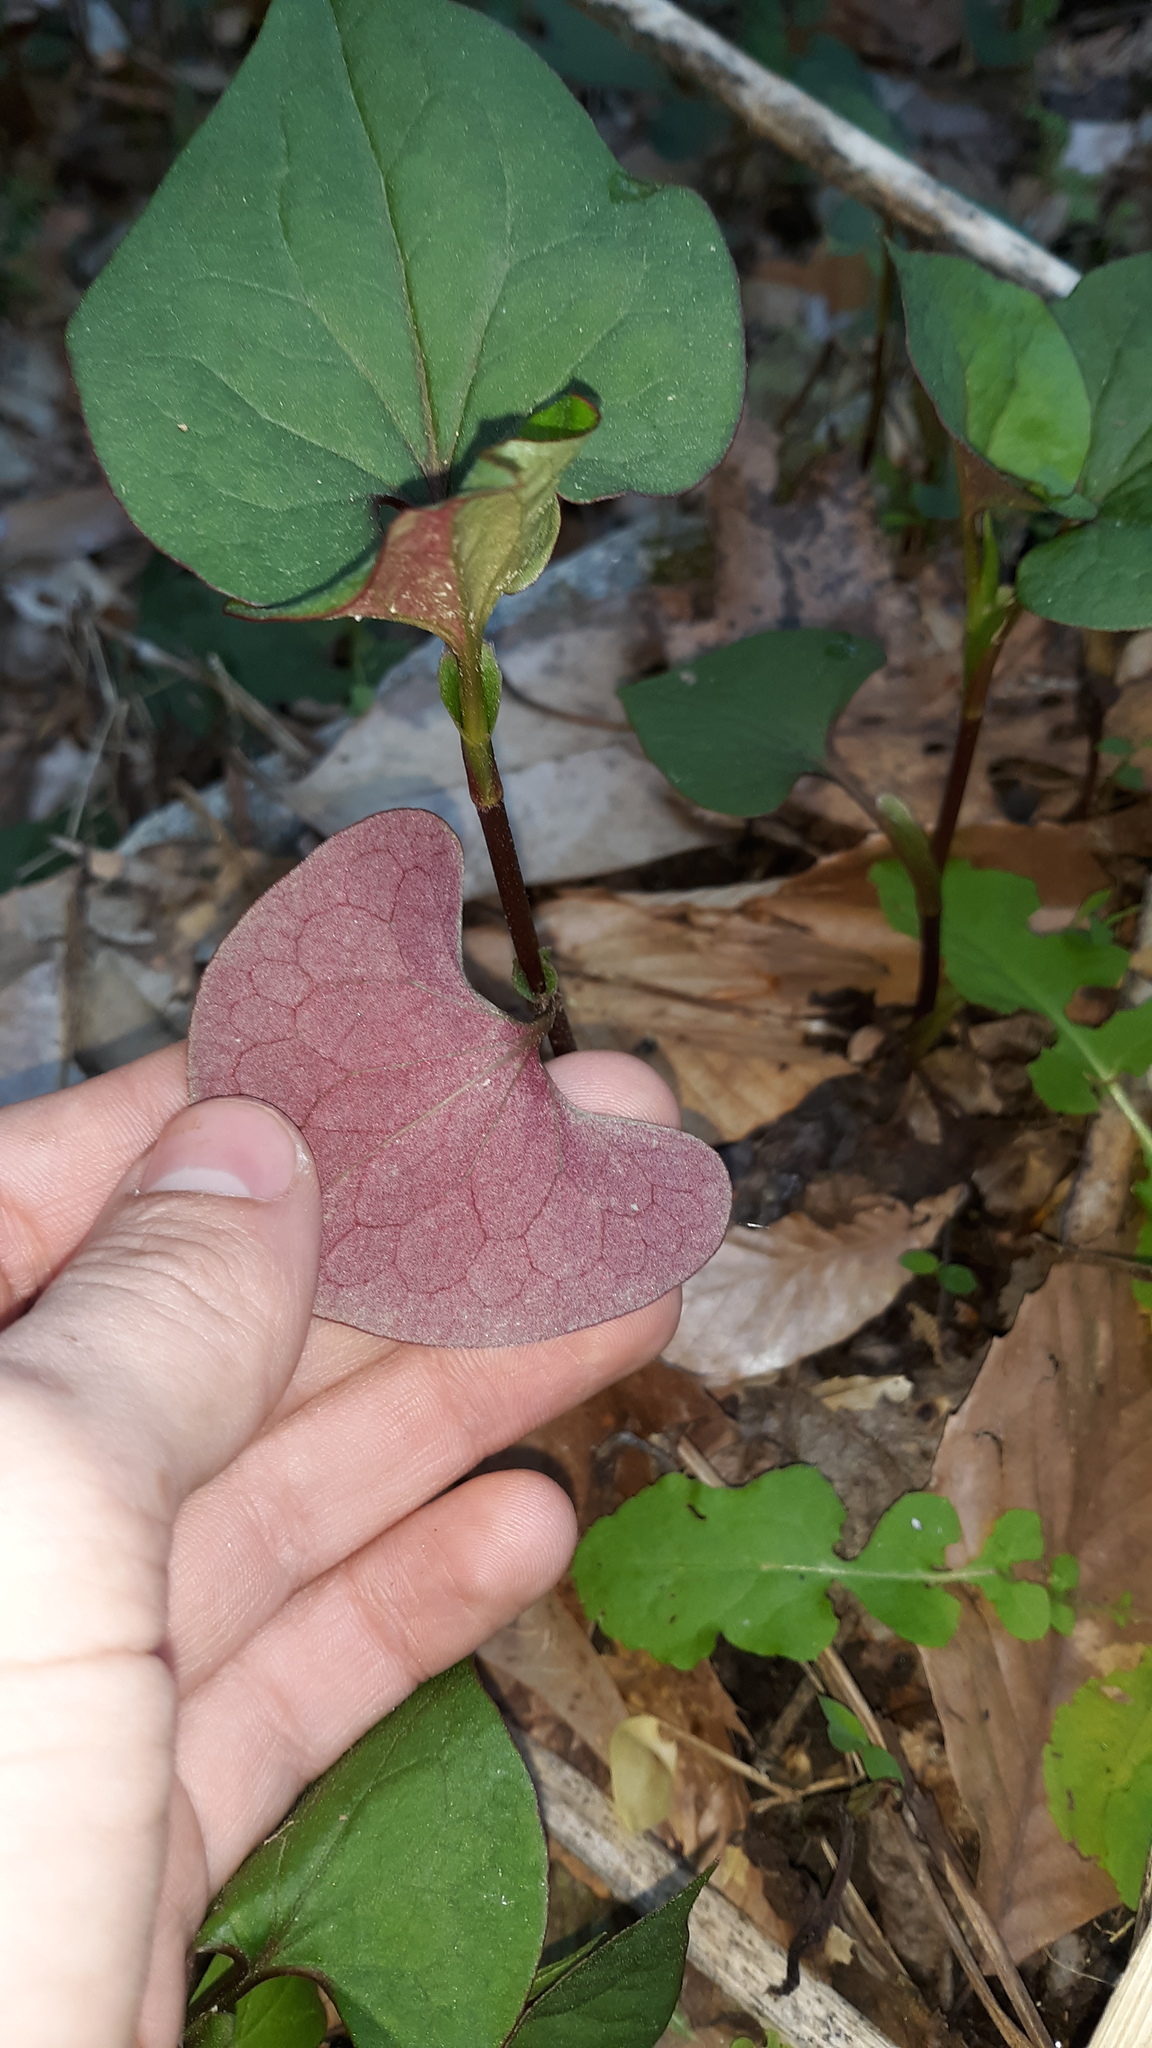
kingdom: Plantae
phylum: Tracheophyta
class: Magnoliopsida
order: Piperales
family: Saururaceae
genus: Houttuynia
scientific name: Houttuynia cordata
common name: Chameleon
